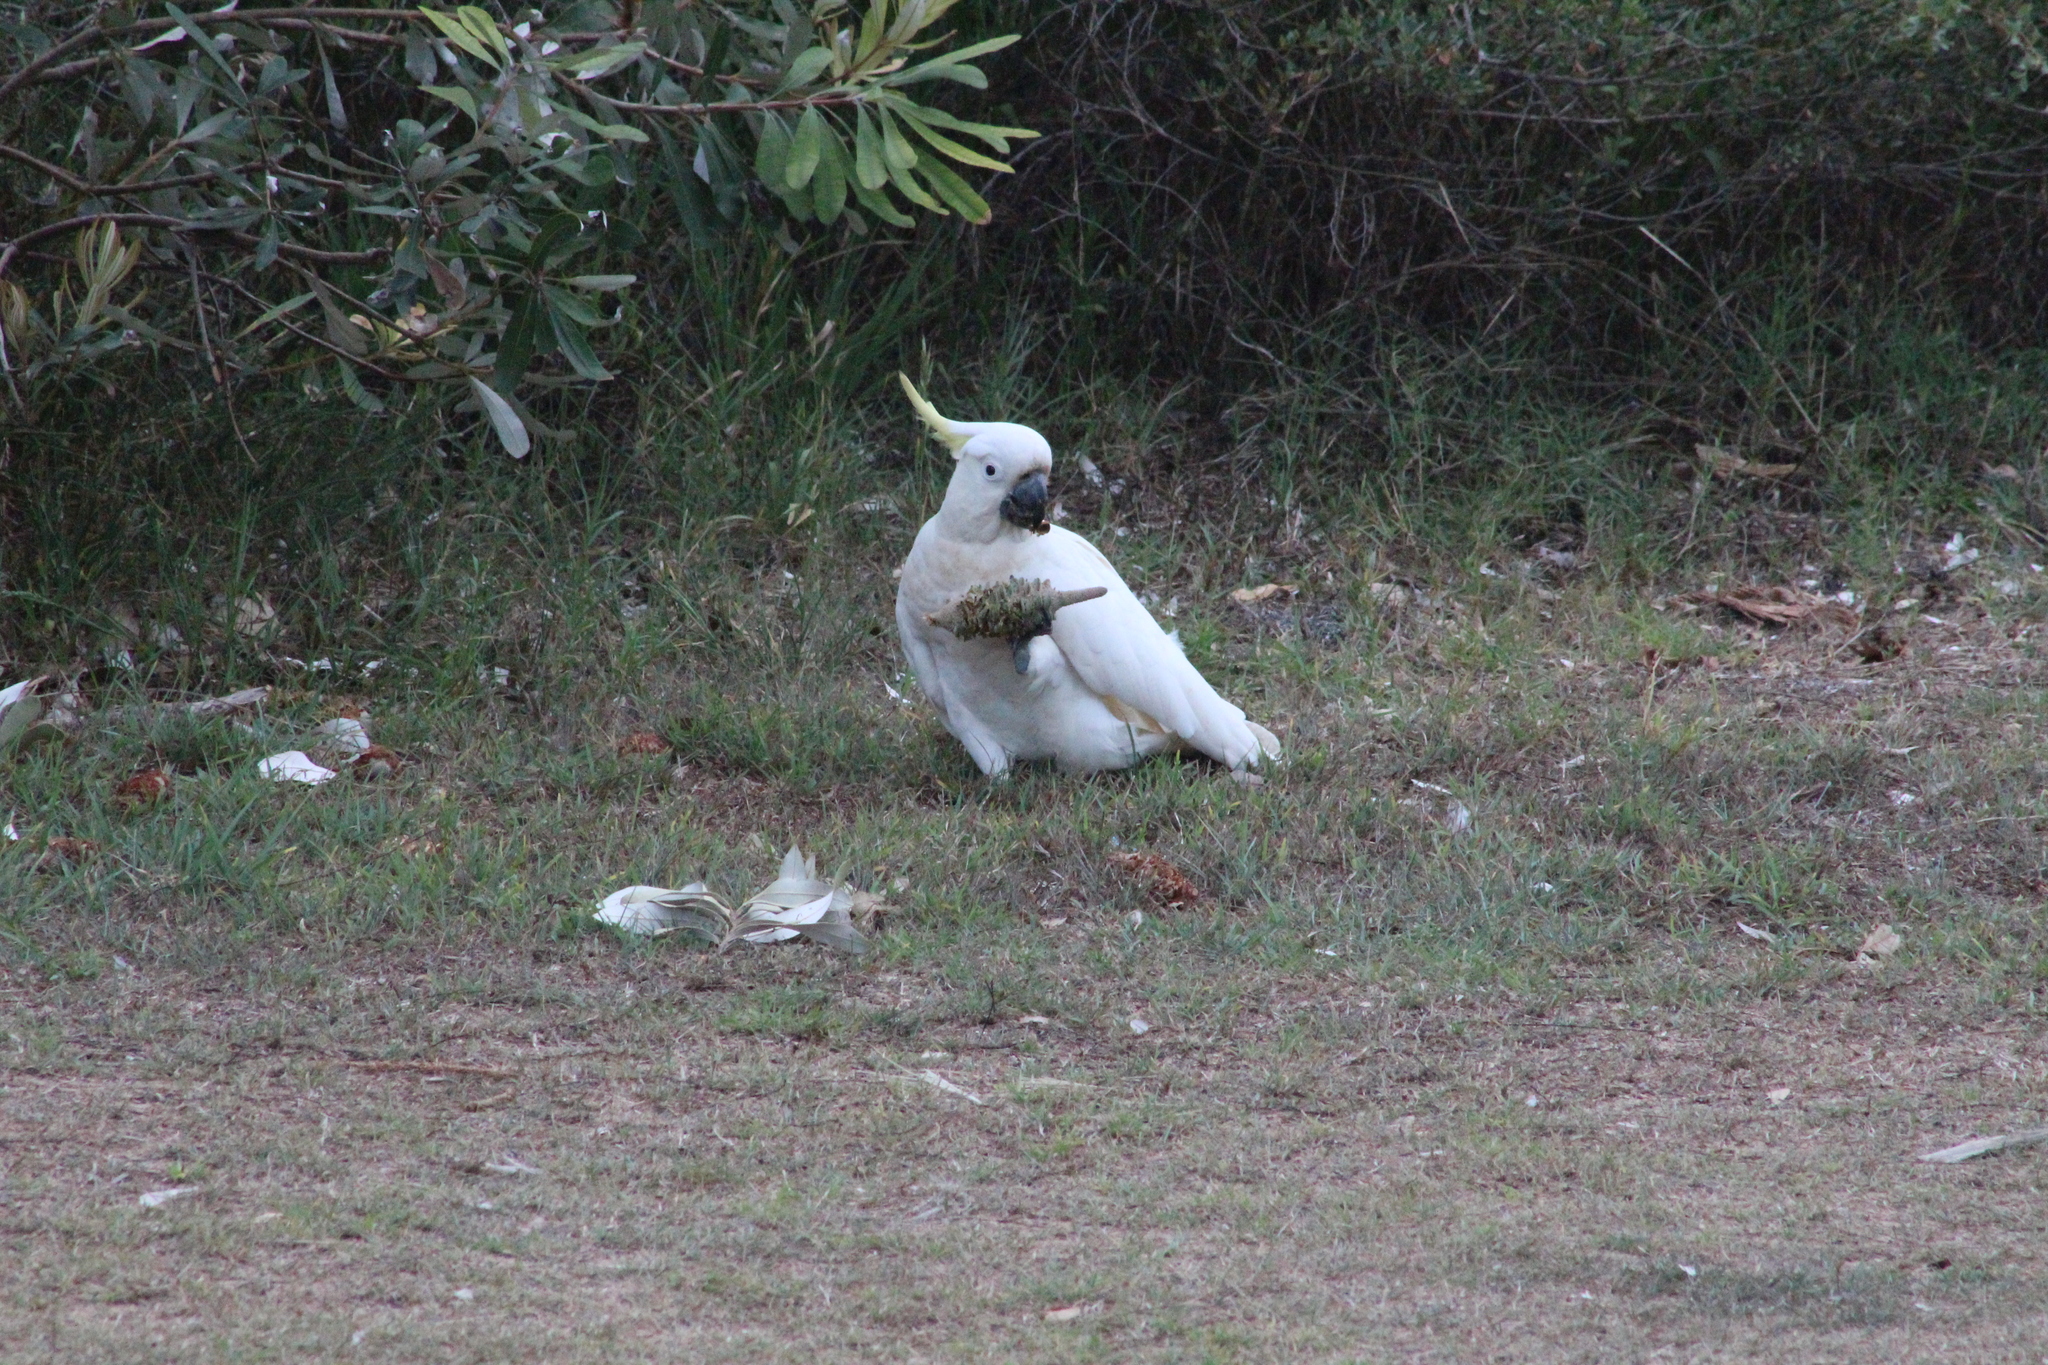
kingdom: Animalia
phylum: Chordata
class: Aves
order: Psittaciformes
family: Psittacidae
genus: Cacatua
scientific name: Cacatua galerita
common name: Sulphur-crested cockatoo
